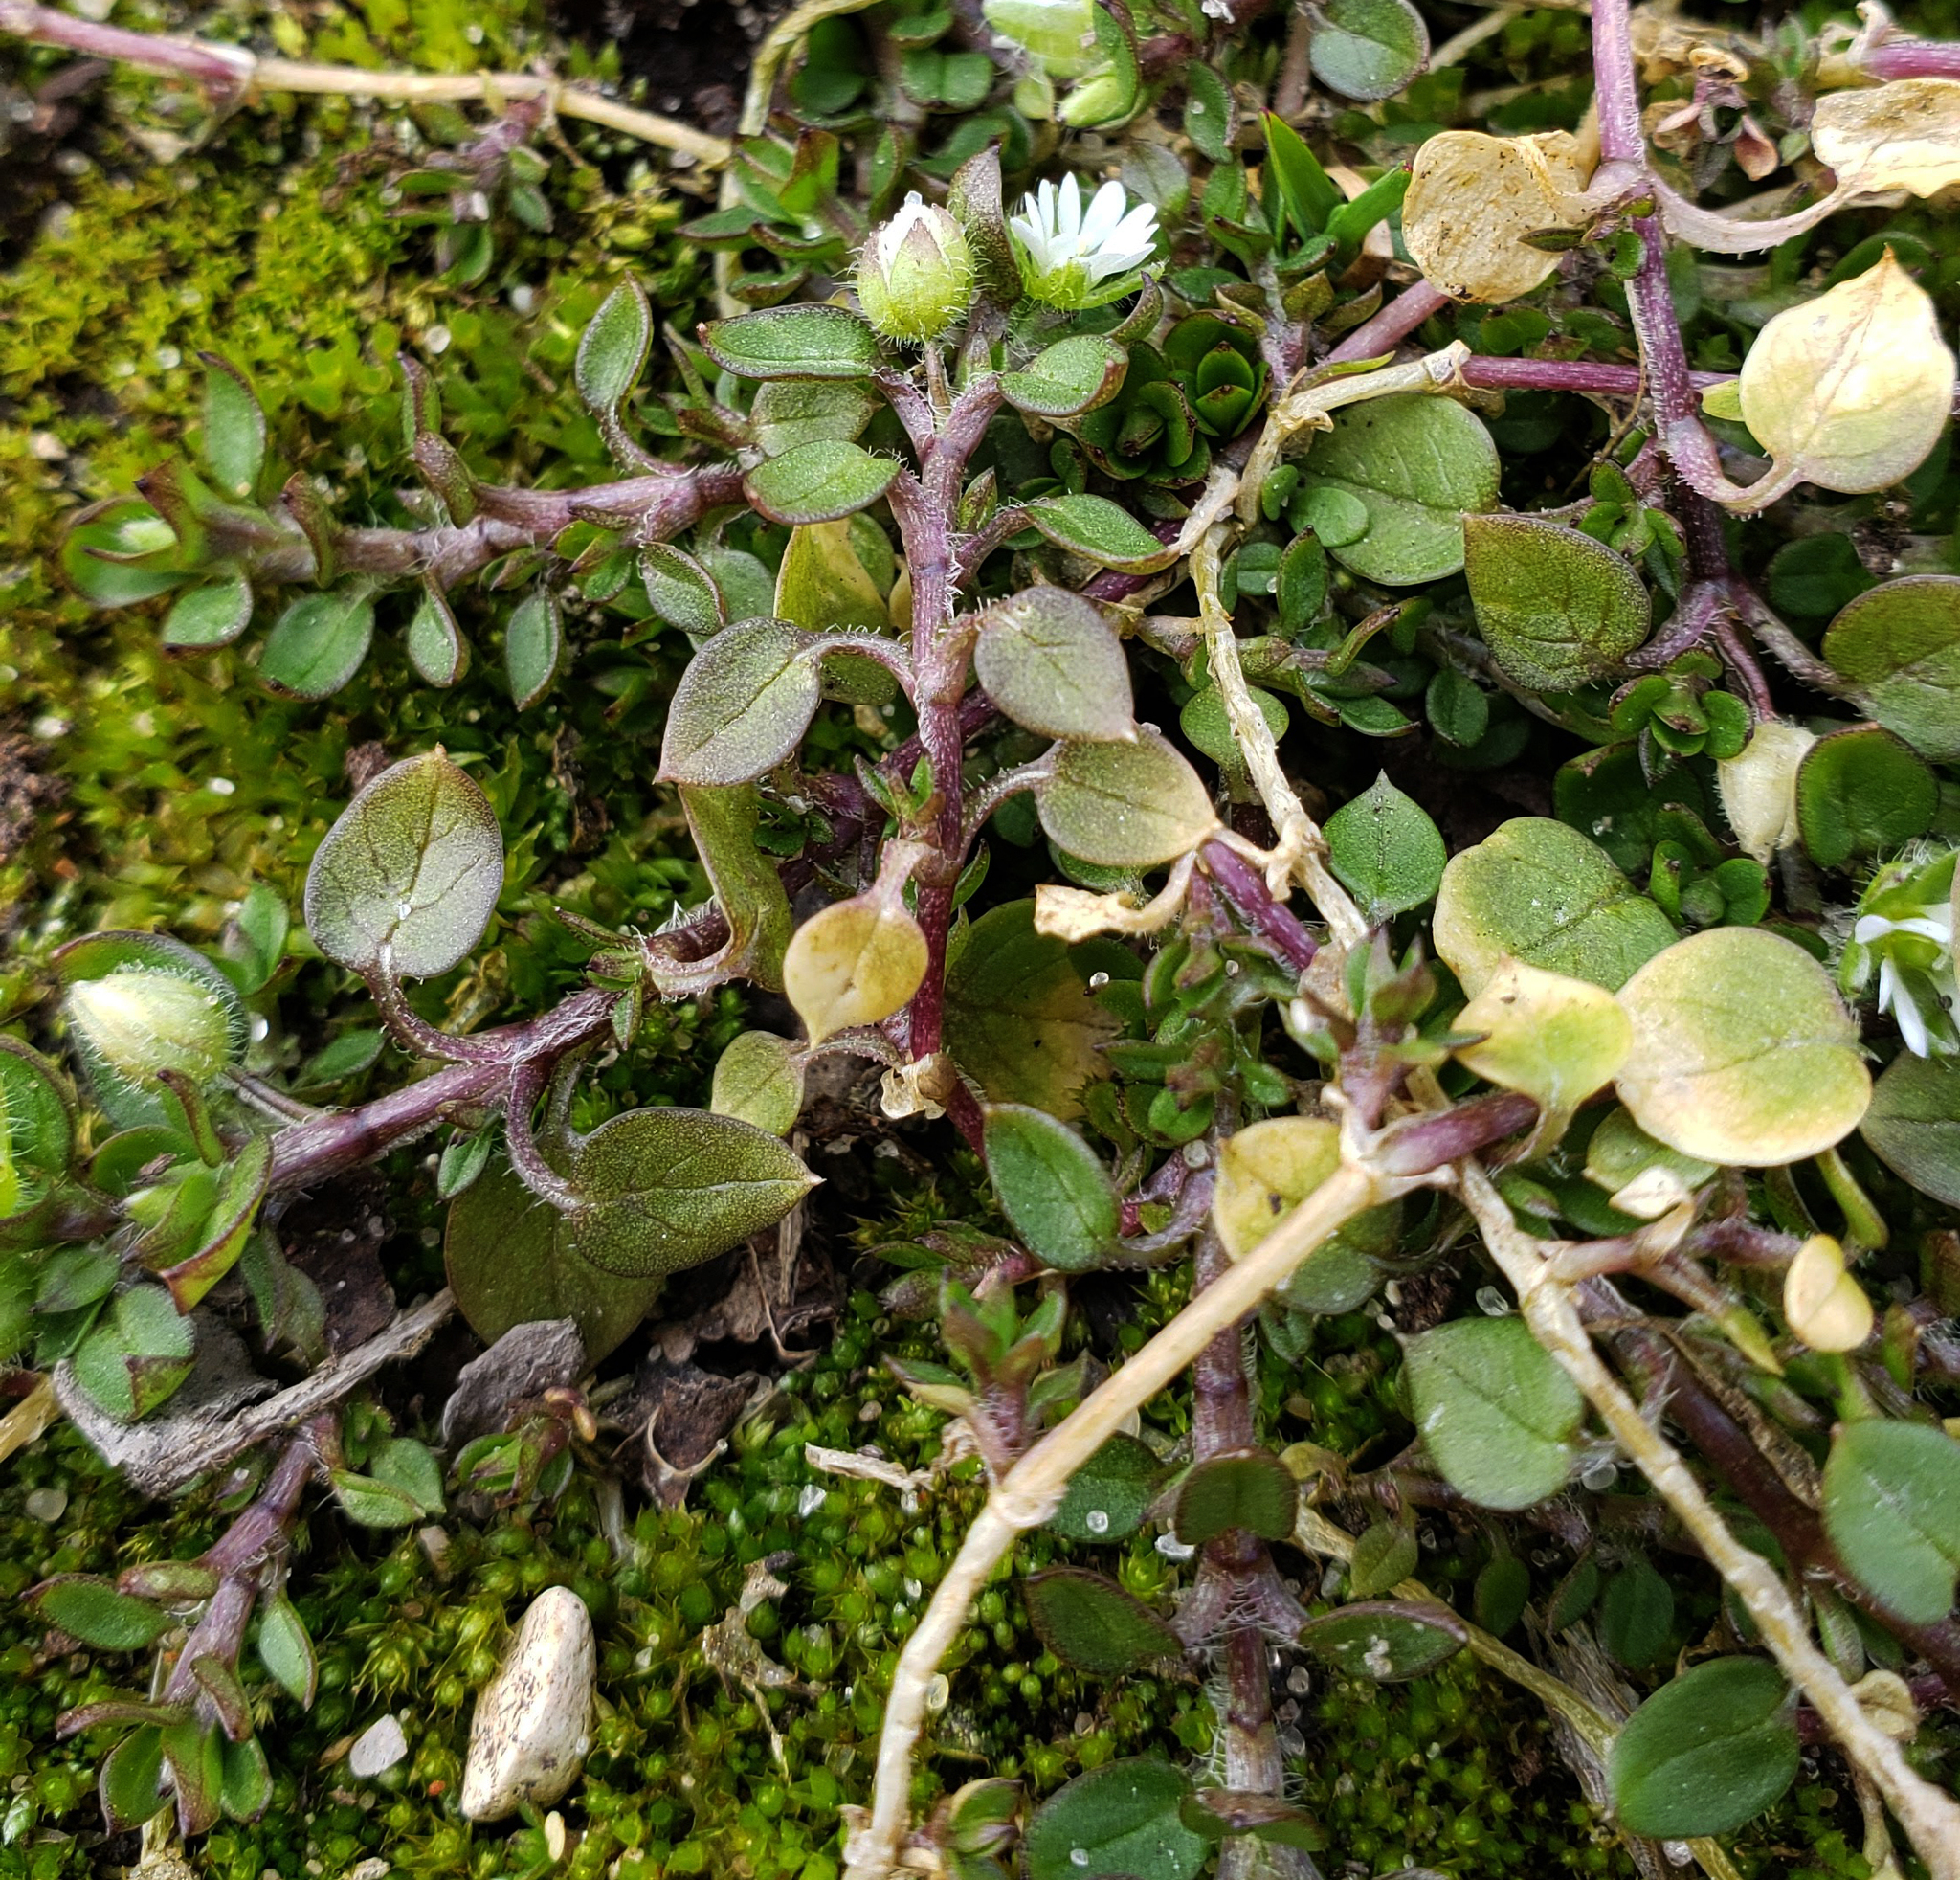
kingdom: Plantae
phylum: Tracheophyta
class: Magnoliopsida
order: Caryophyllales
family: Caryophyllaceae
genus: Stellaria
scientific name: Stellaria media
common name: Common chickweed
